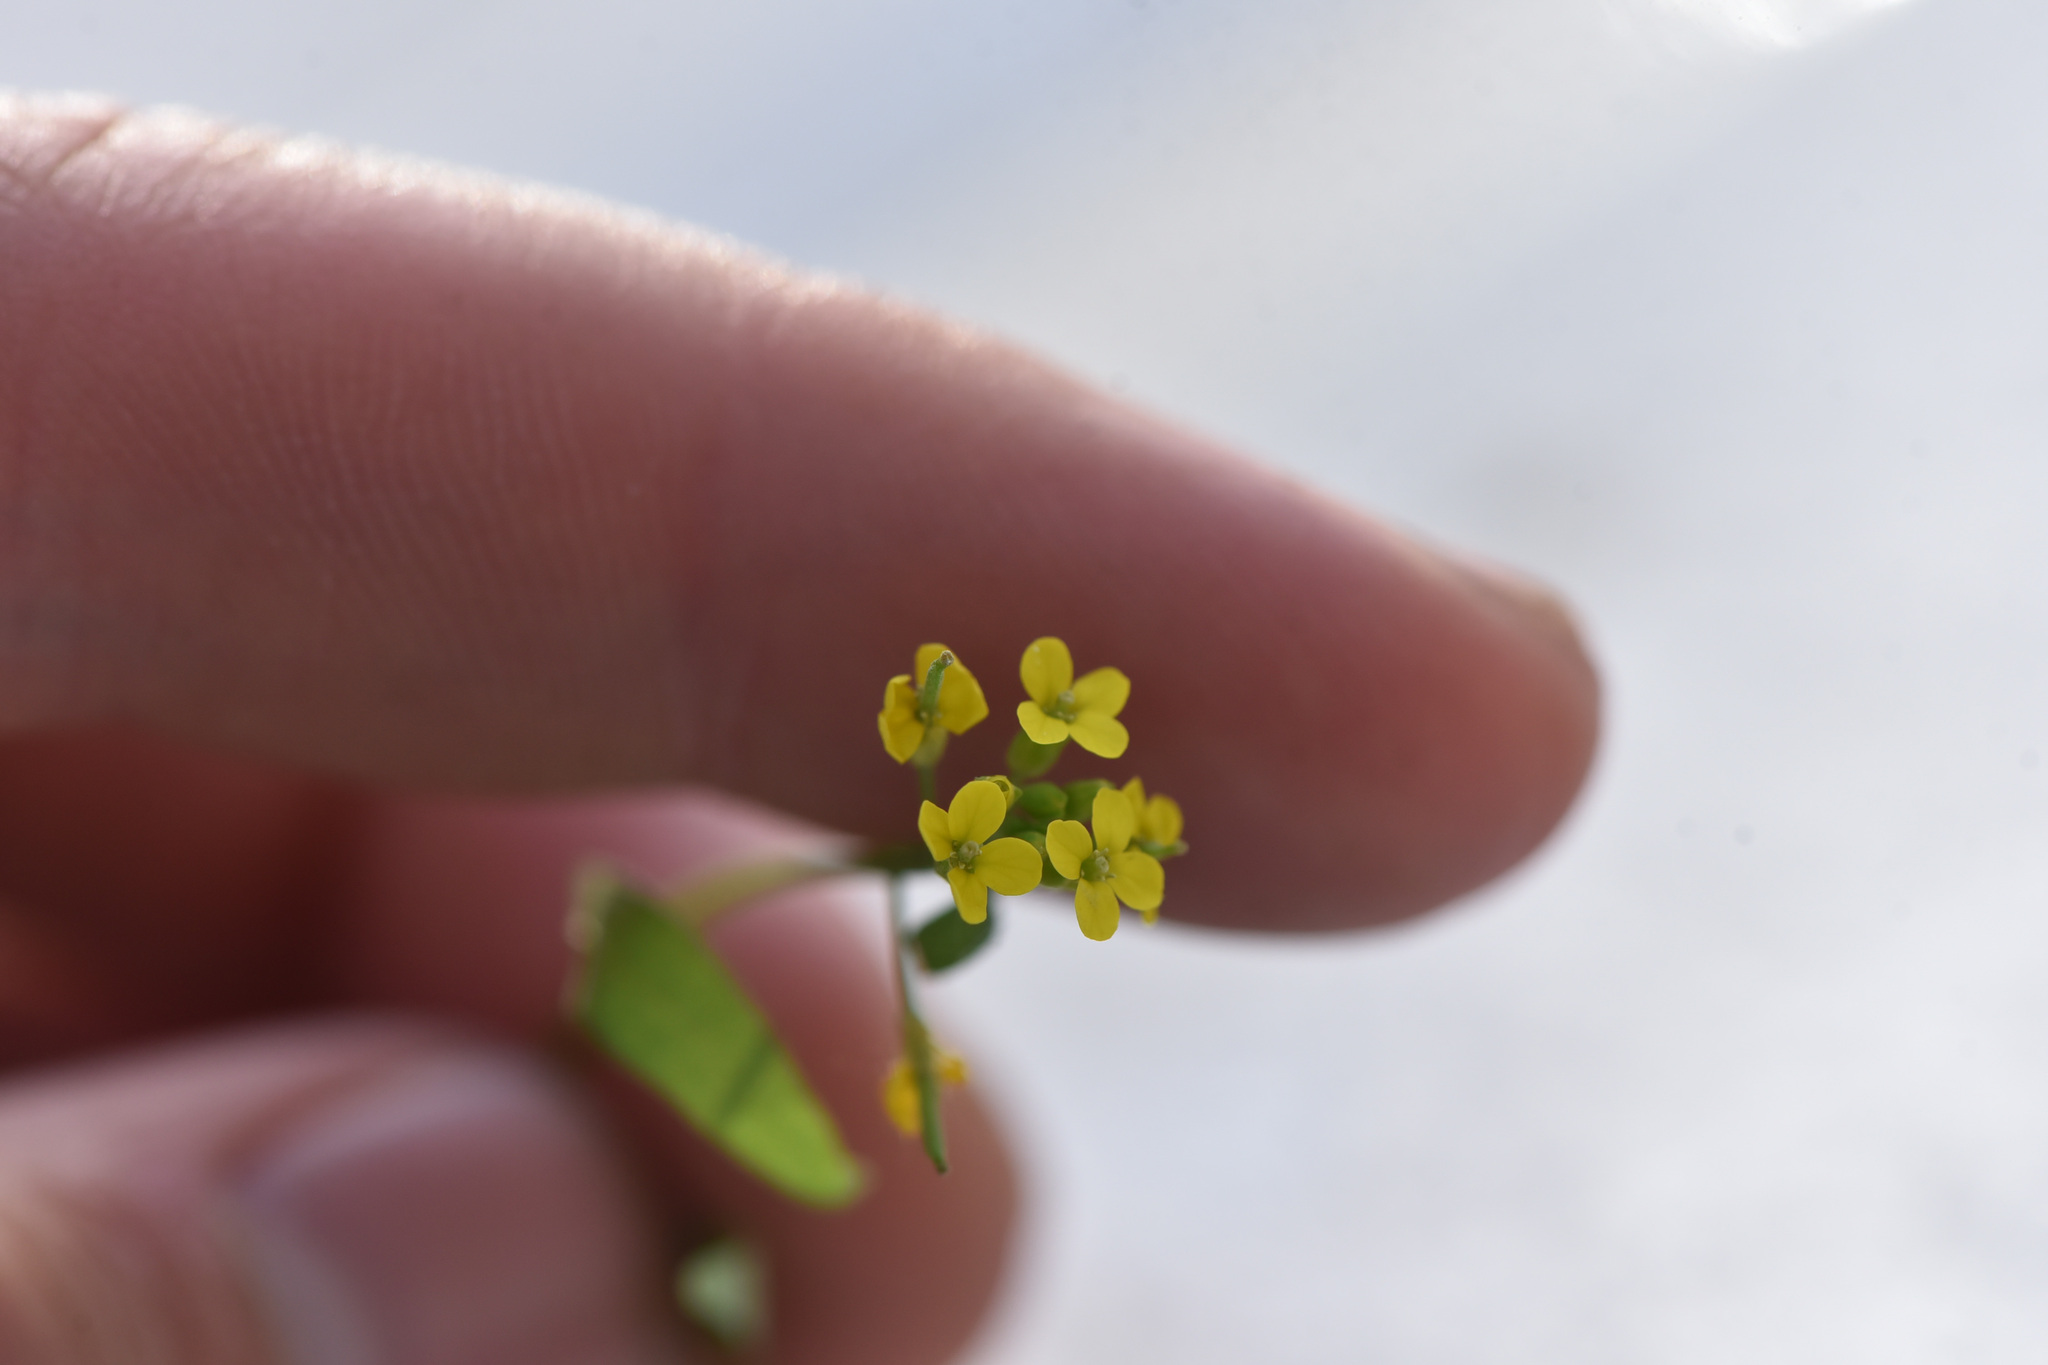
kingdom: Plantae
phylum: Tracheophyta
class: Magnoliopsida
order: Brassicales
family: Brassicaceae
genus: Erysimum
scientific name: Erysimum cheiranthoides
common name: Treacle mustard
